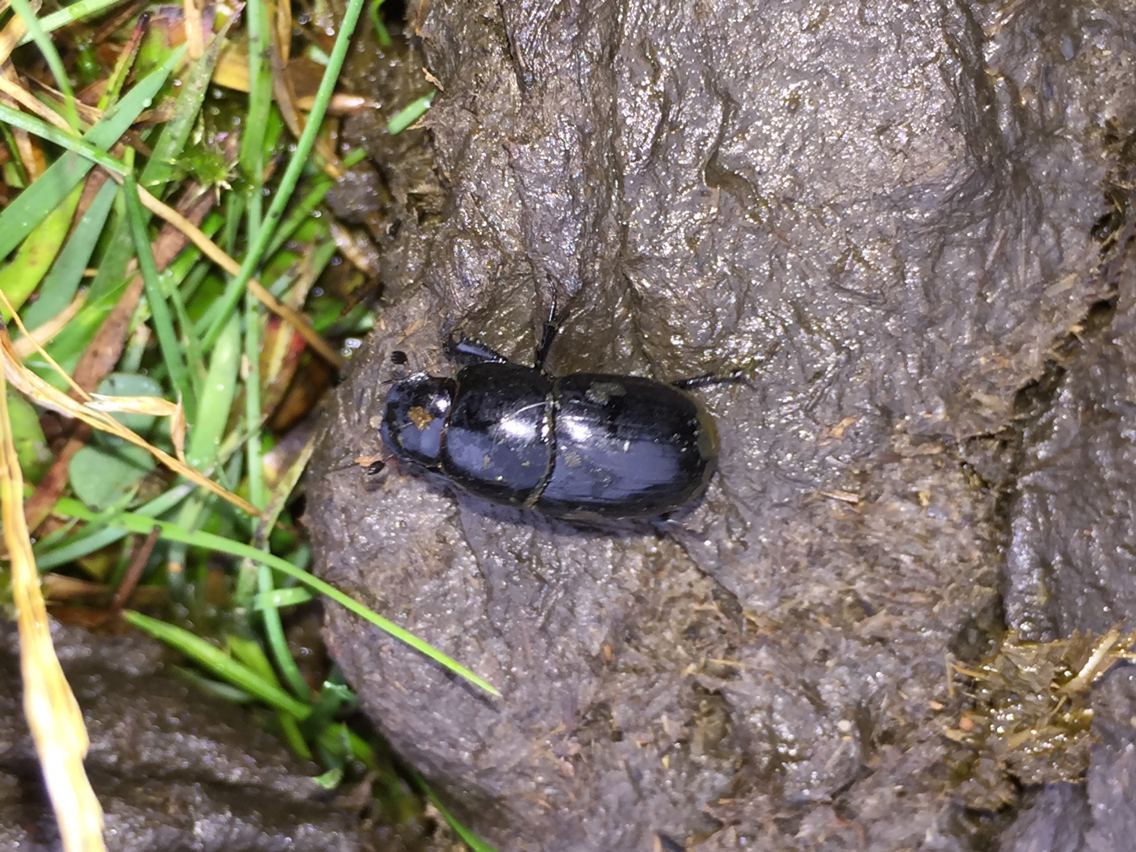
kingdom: Animalia
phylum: Arthropoda
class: Insecta
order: Coleoptera
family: Scarabaeidae
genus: Teuchestes
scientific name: Teuchestes fossor
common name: Digger small dung beetle
